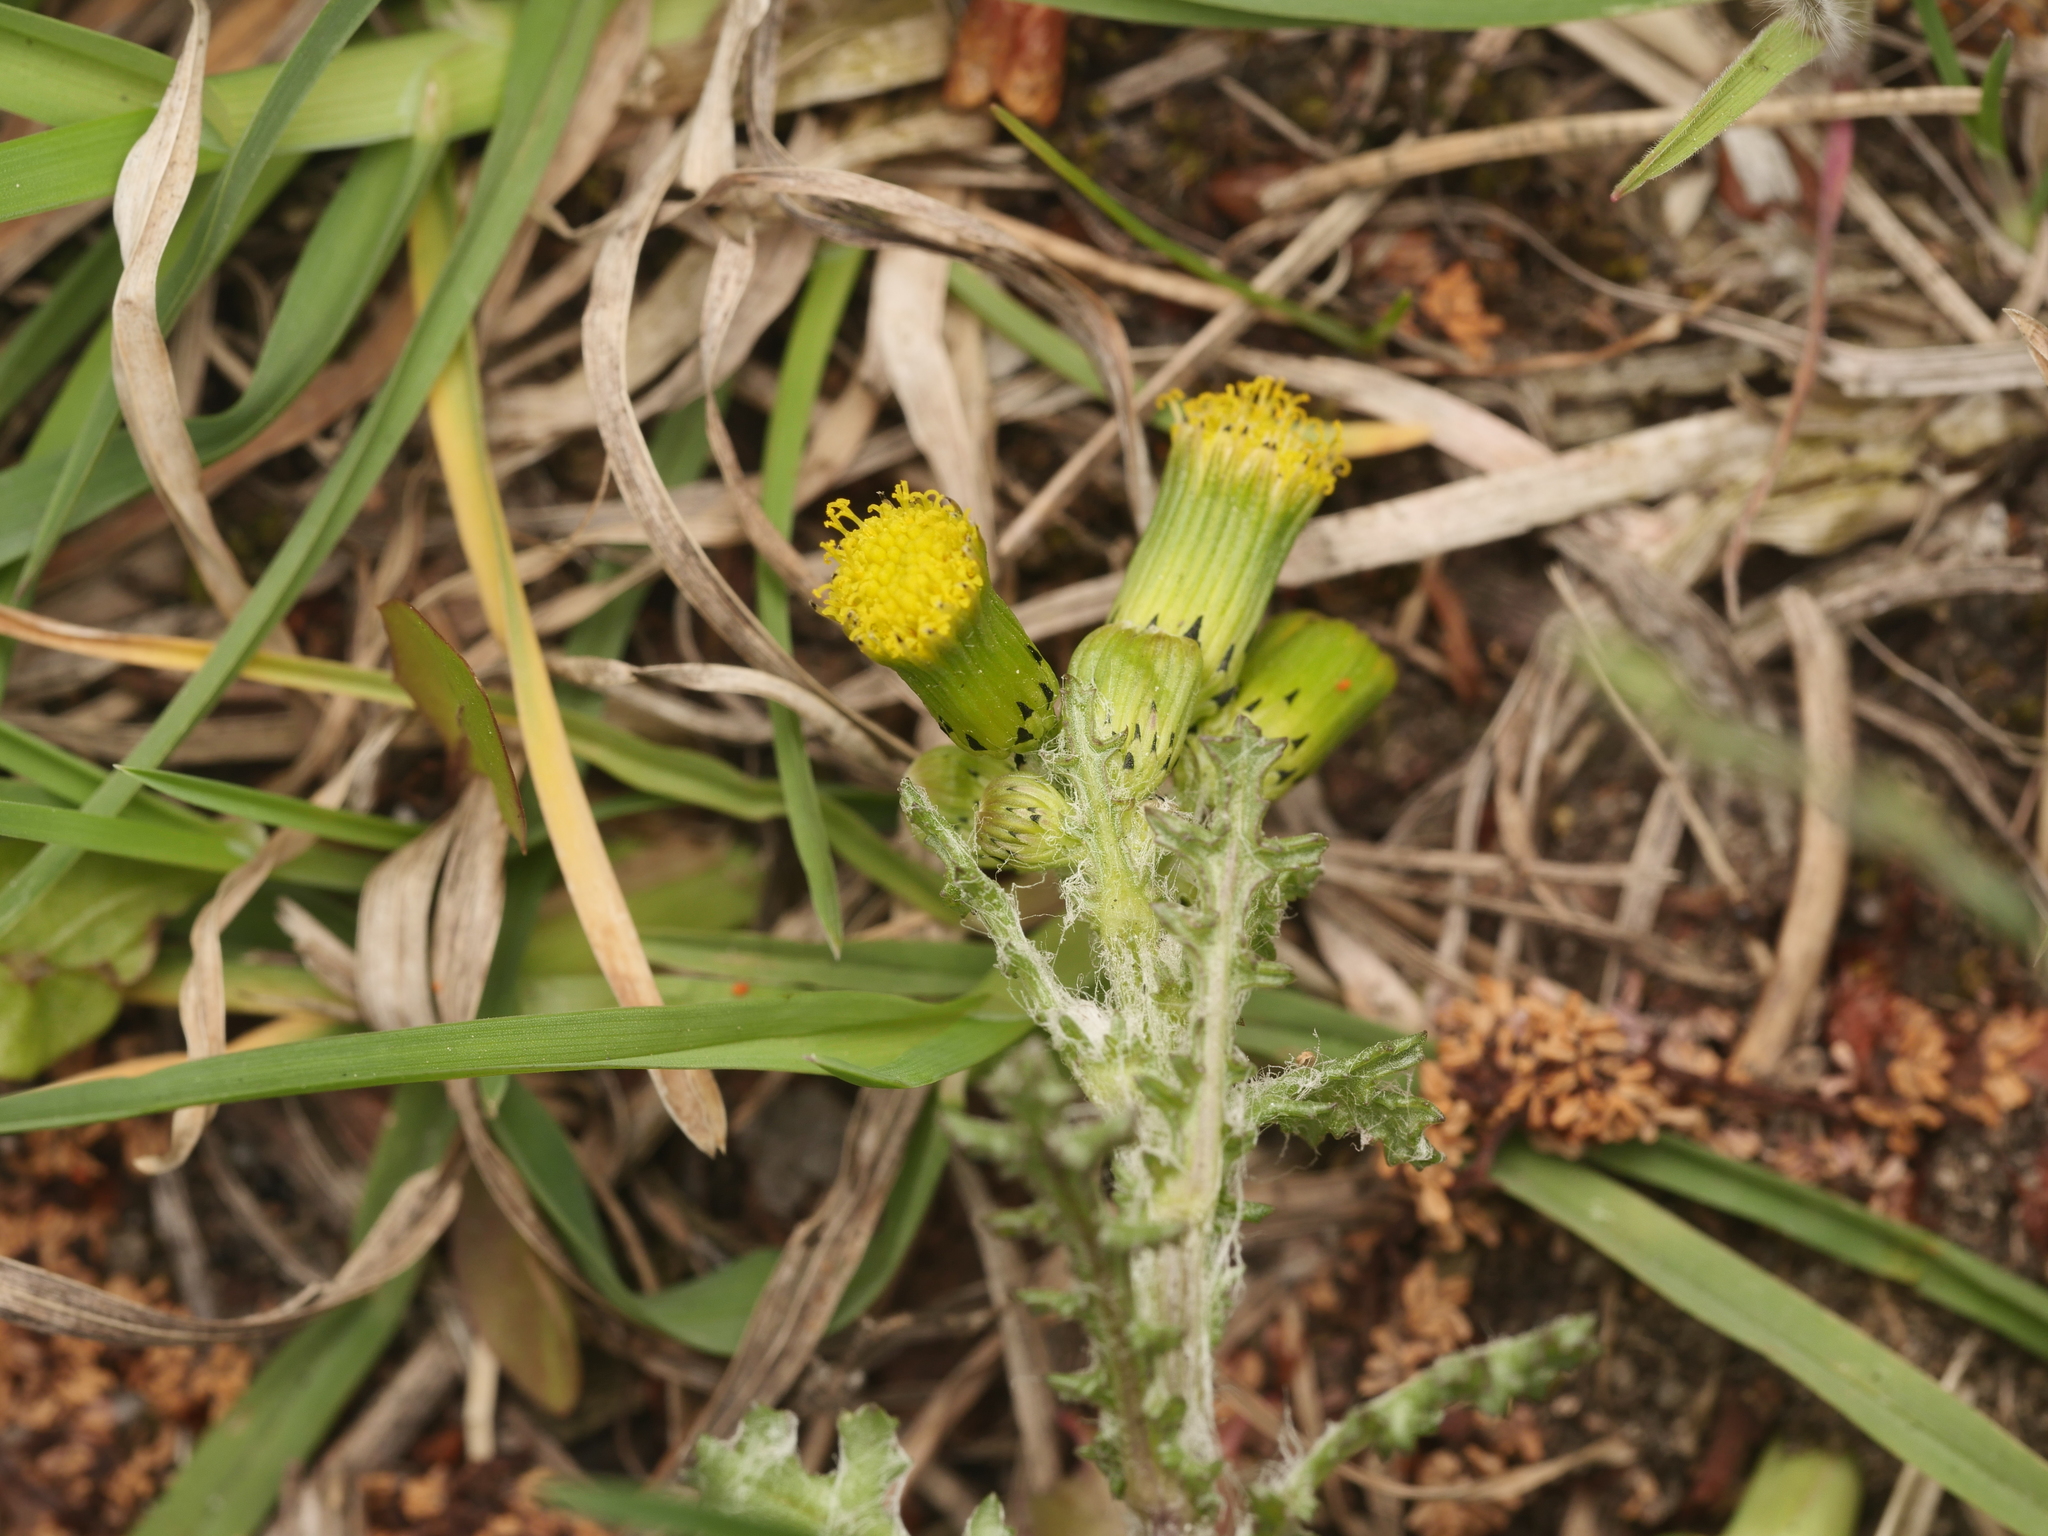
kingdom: Plantae
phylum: Tracheophyta
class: Magnoliopsida
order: Asterales
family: Asteraceae
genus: Senecio
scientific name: Senecio vulgaris
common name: Old-man-in-the-spring
